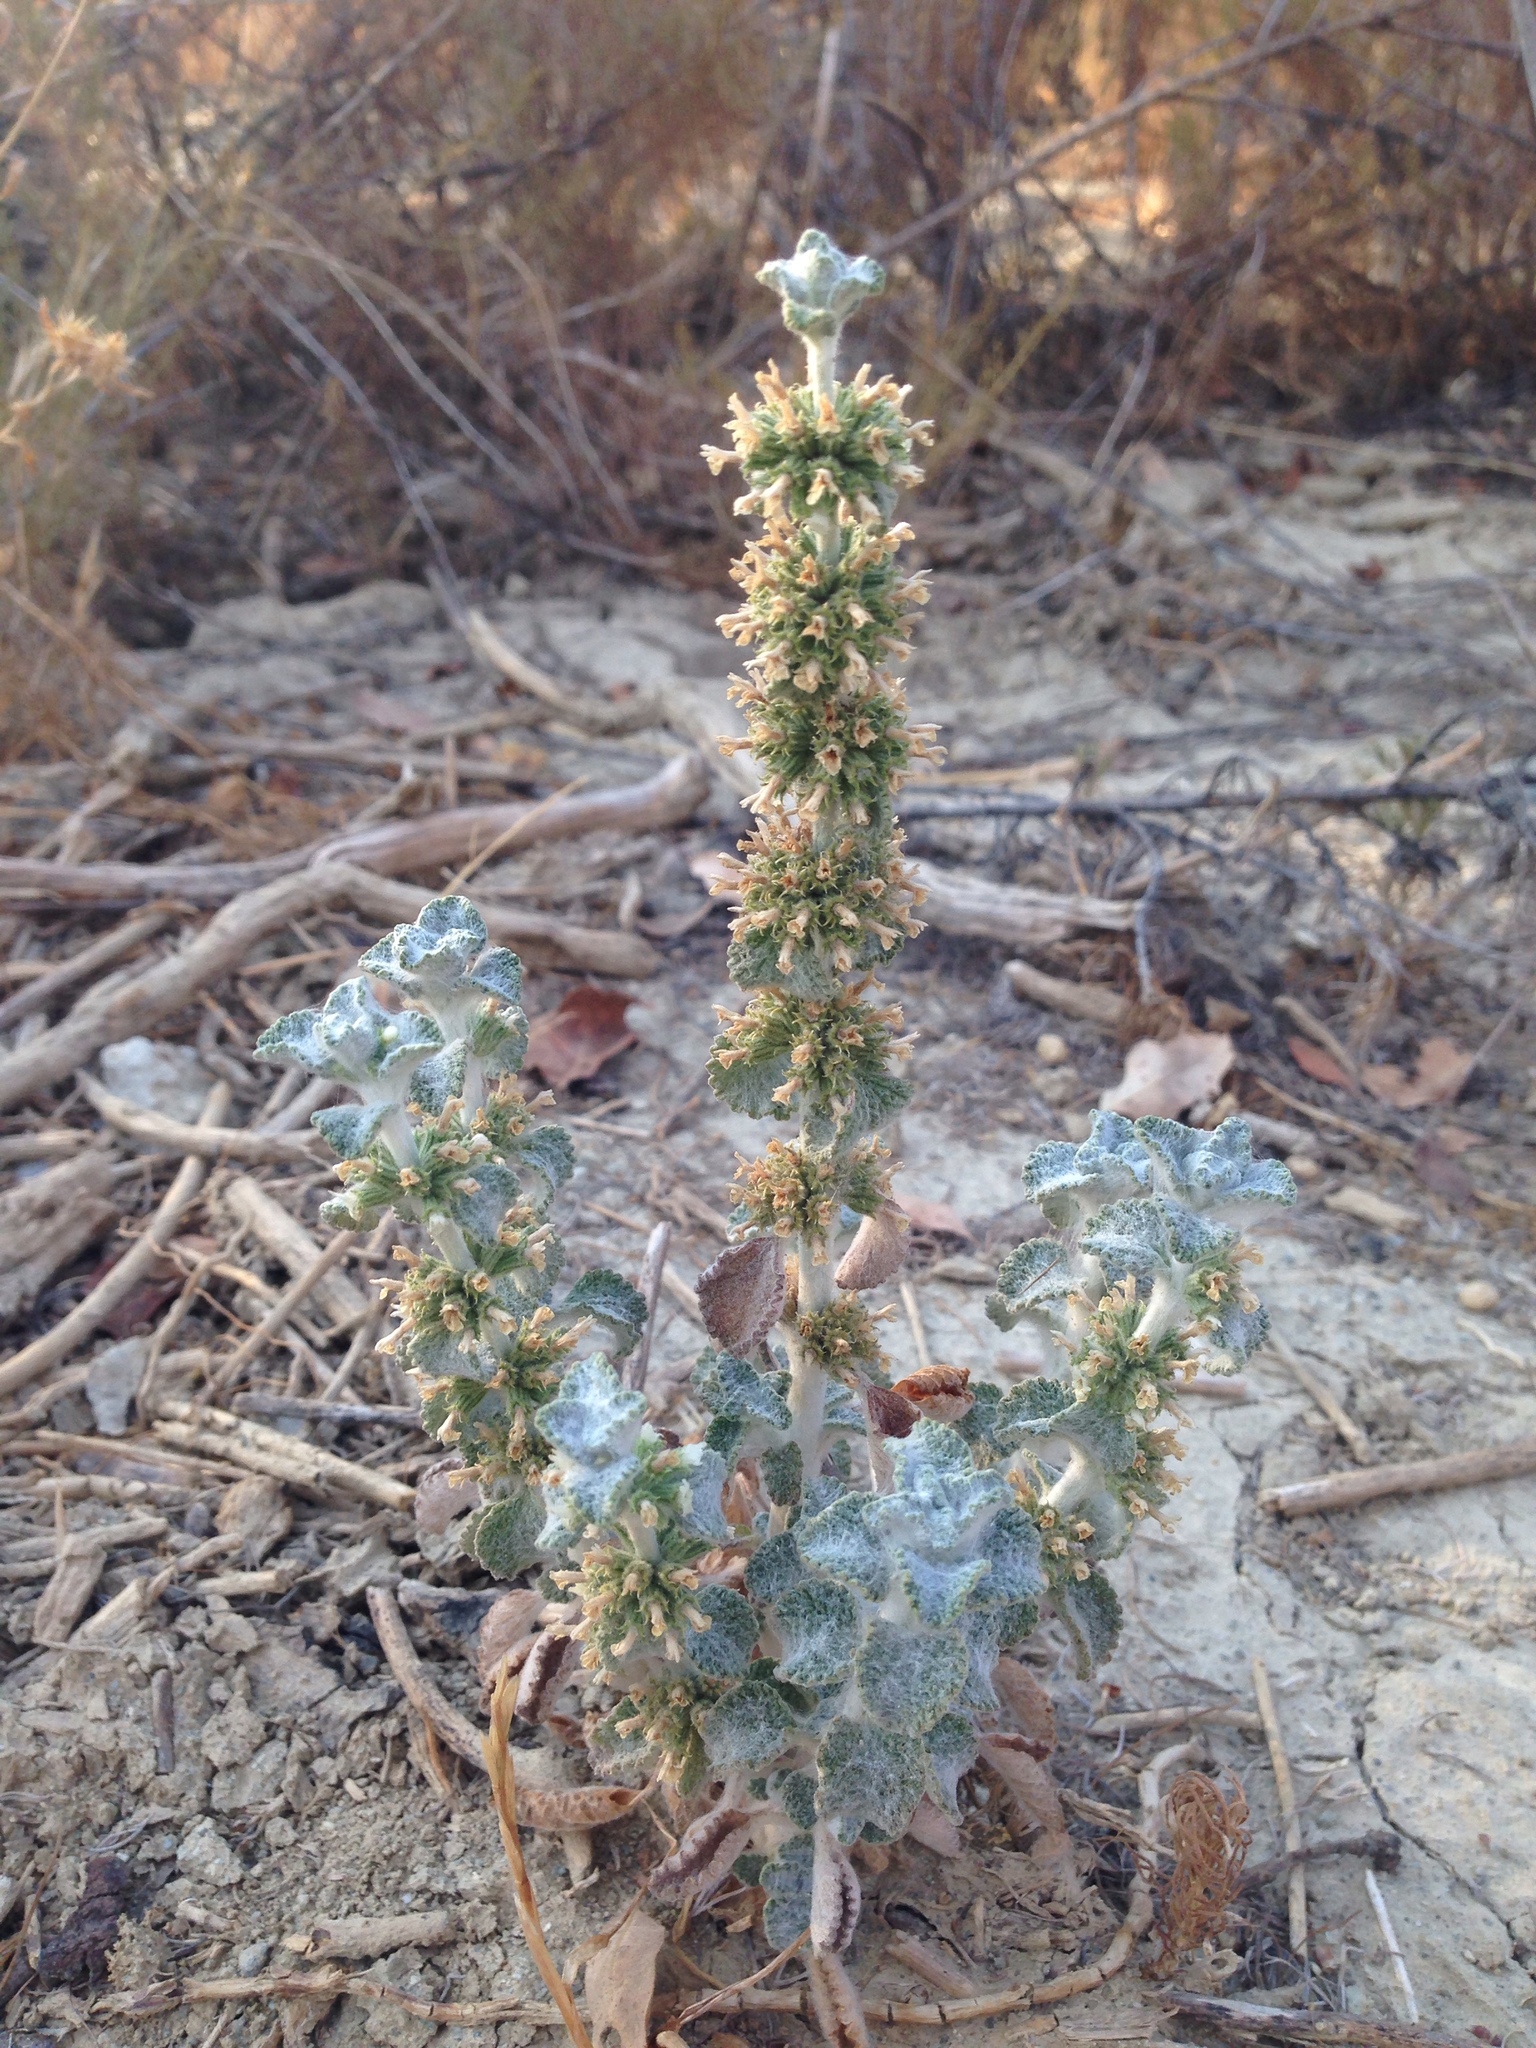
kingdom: Plantae
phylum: Tracheophyta
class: Magnoliopsida
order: Lamiales
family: Lamiaceae
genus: Marrubium
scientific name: Marrubium vulgare
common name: Horehound
